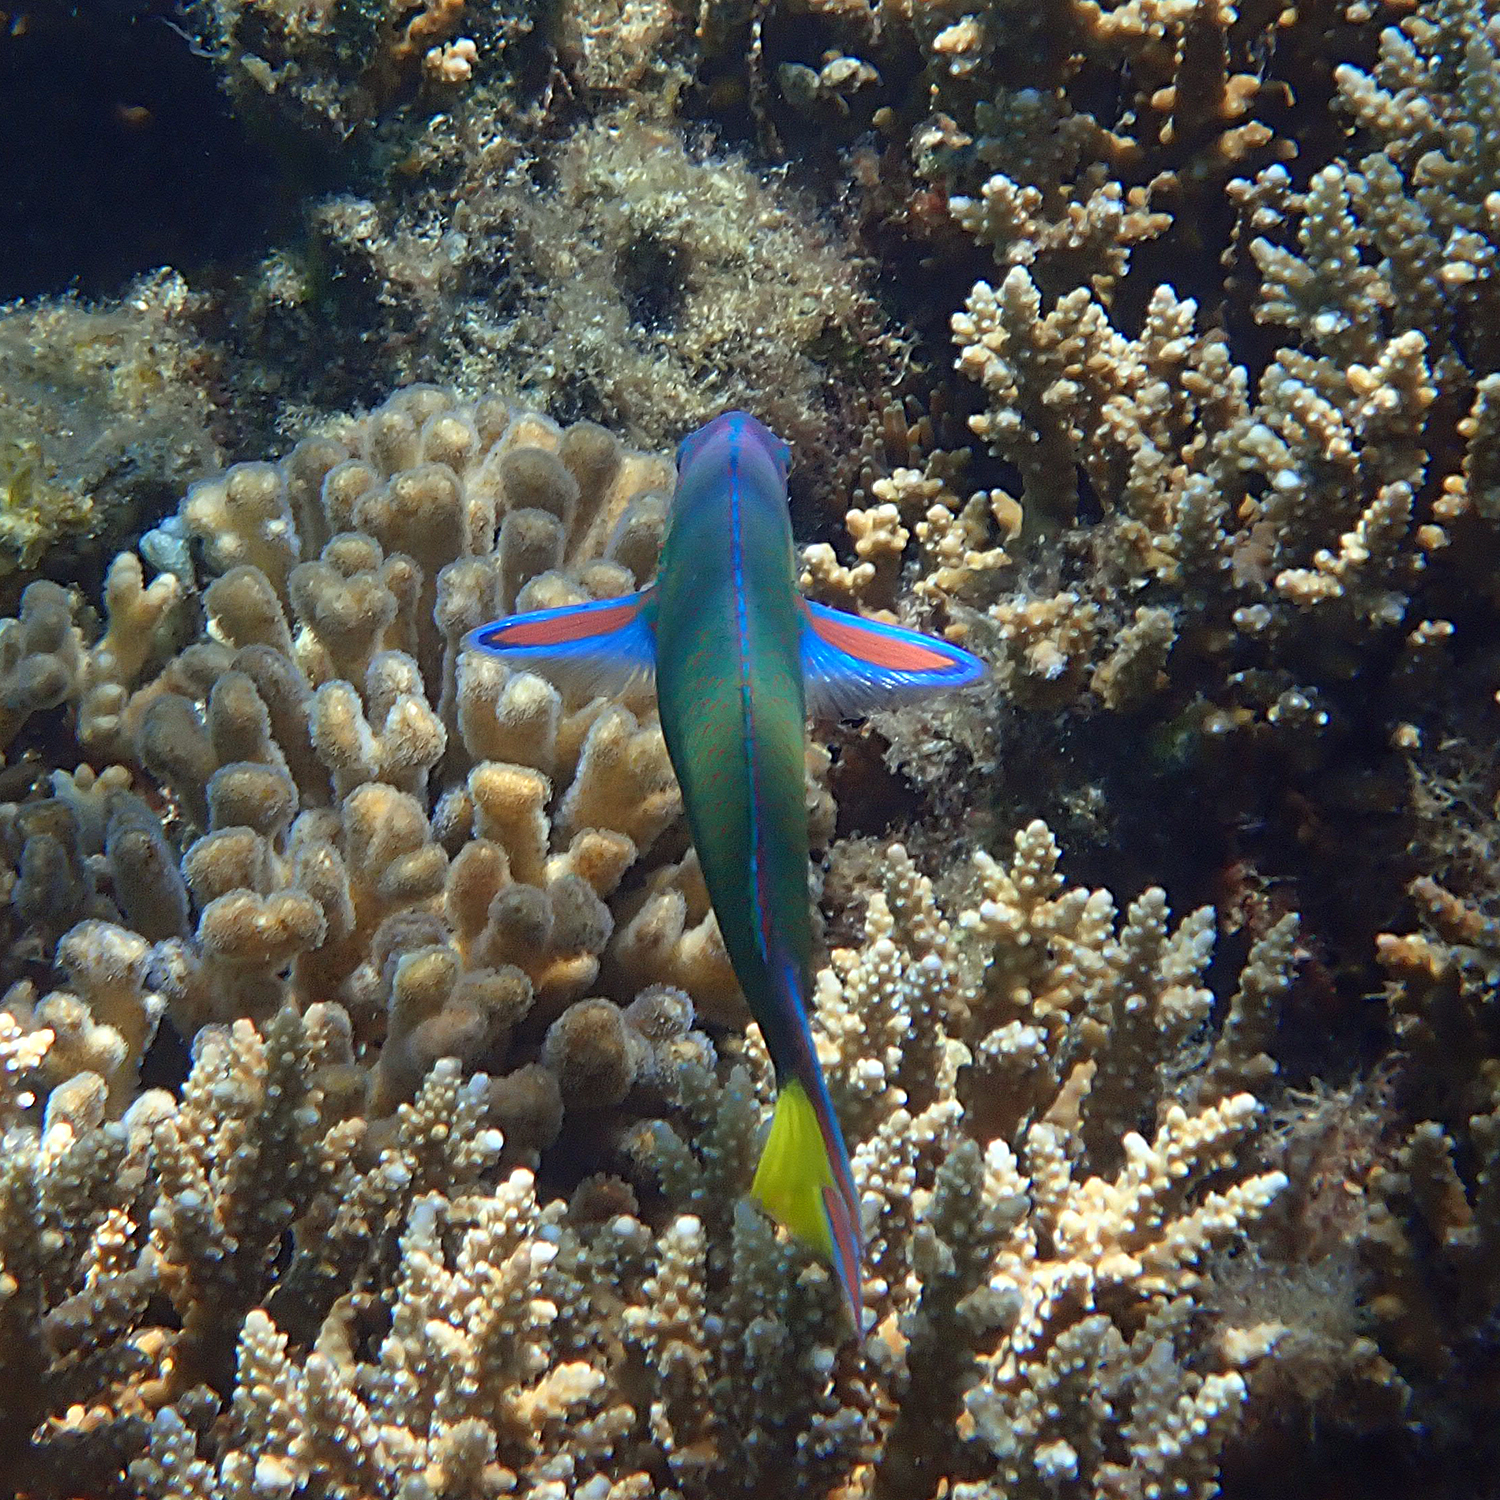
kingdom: Animalia
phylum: Chordata
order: Perciformes
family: Labridae
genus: Thalassoma
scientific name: Thalassoma lunare
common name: Blue wrasse
